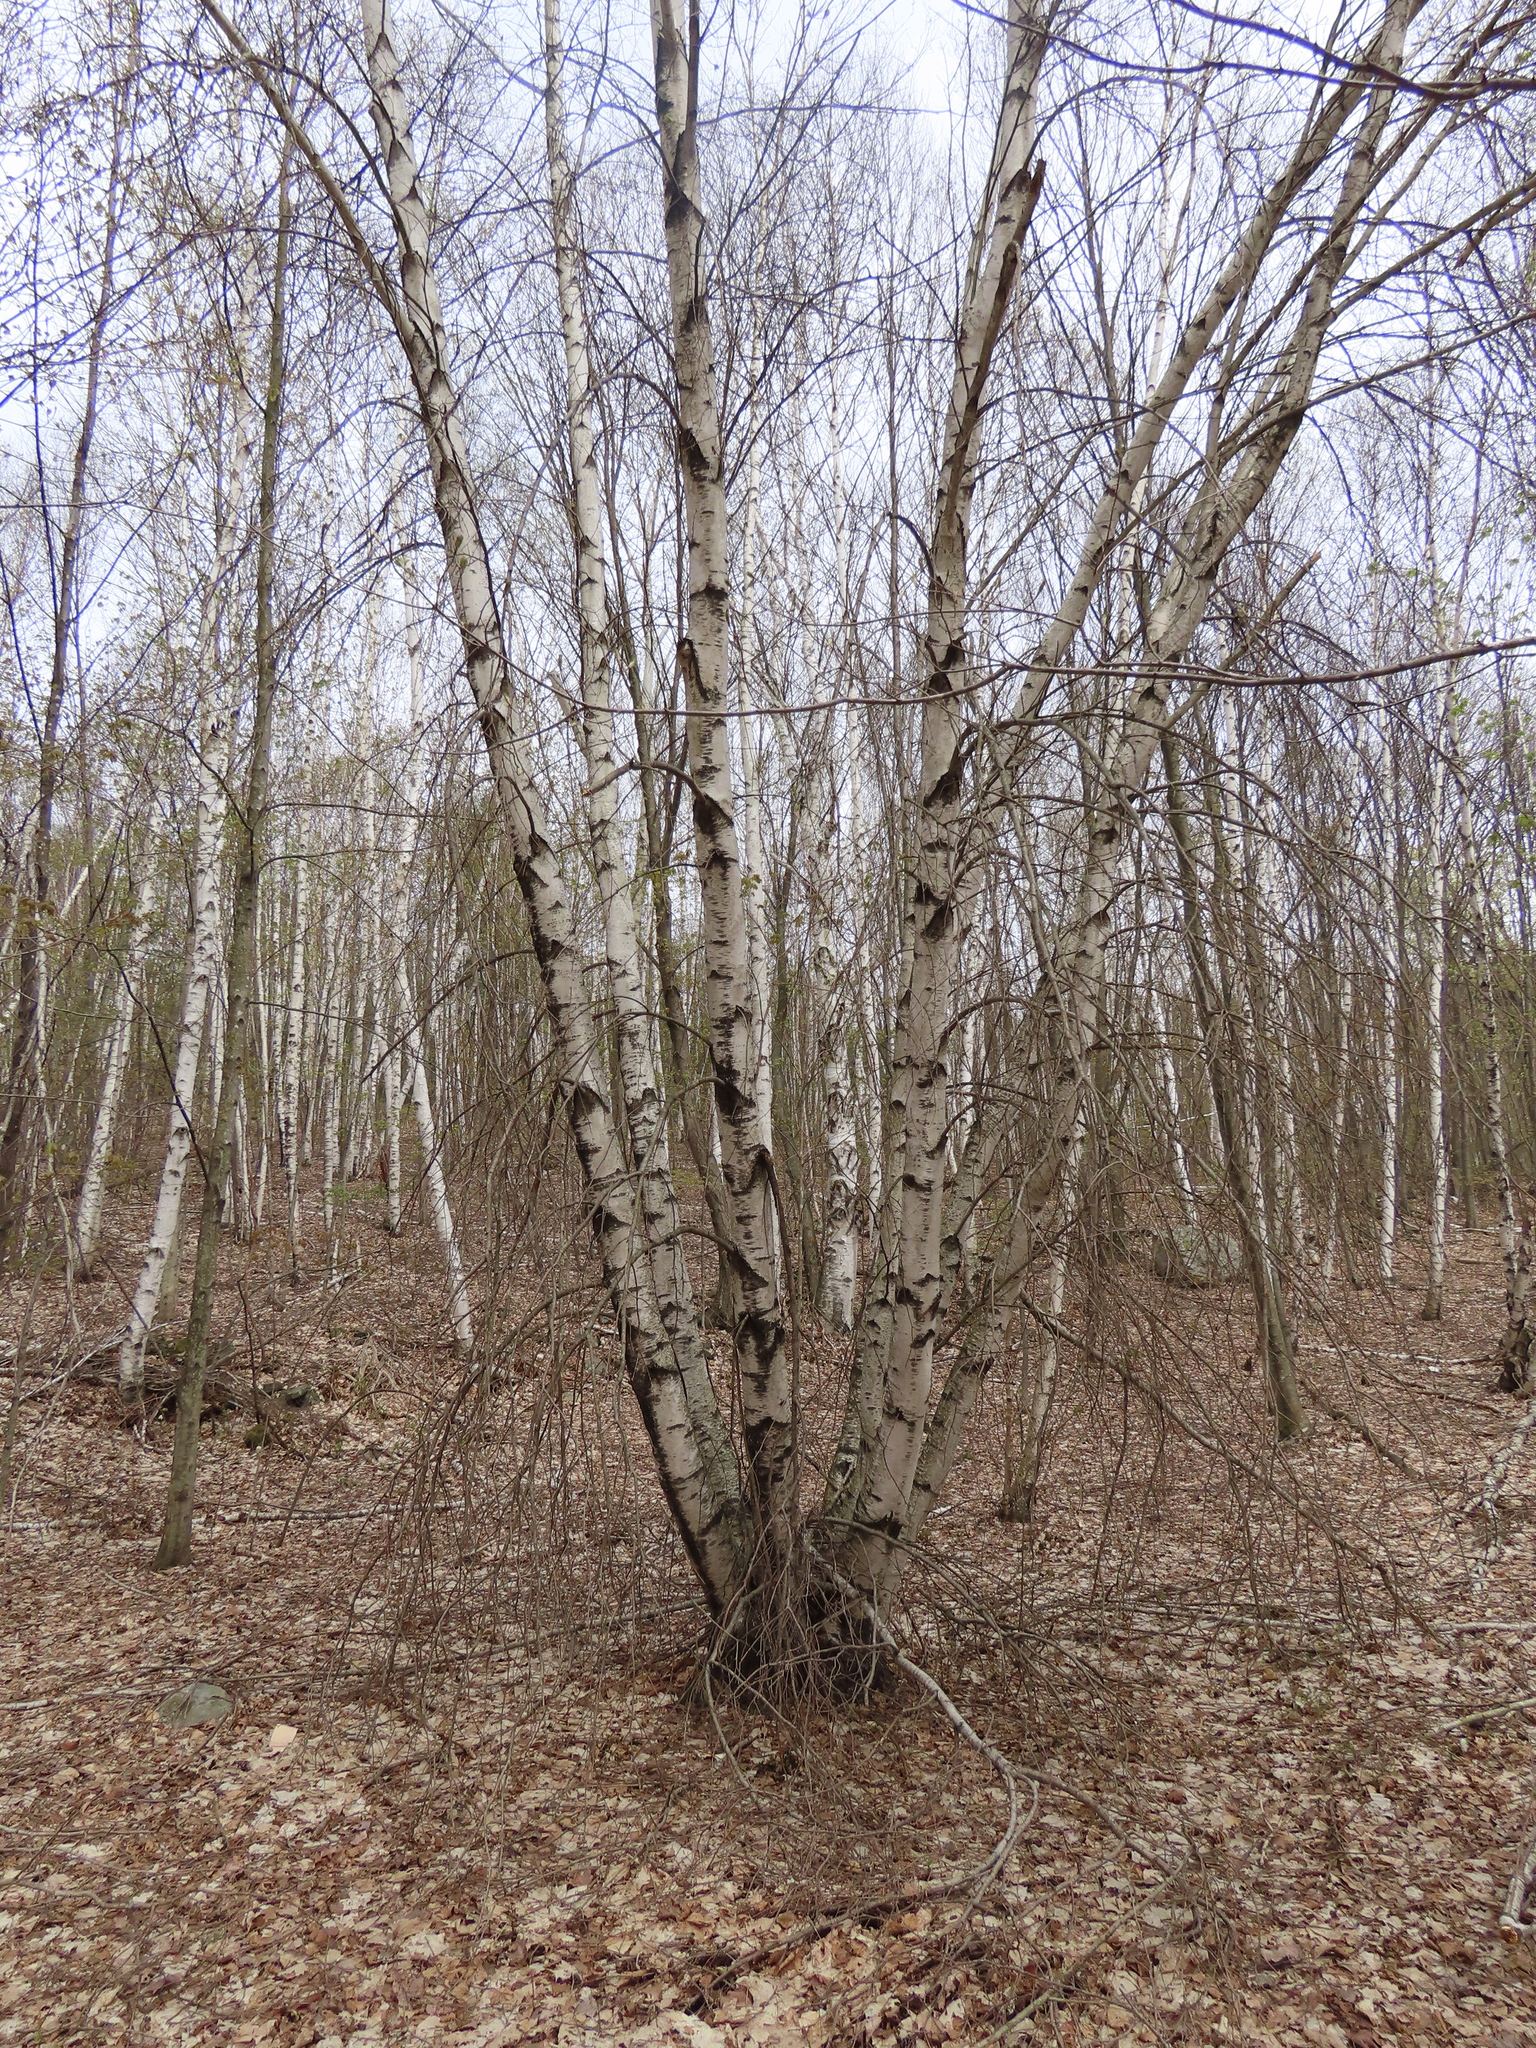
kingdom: Plantae
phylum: Tracheophyta
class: Magnoliopsida
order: Fagales
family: Betulaceae
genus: Betula
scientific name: Betula populifolia
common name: Fire birch
